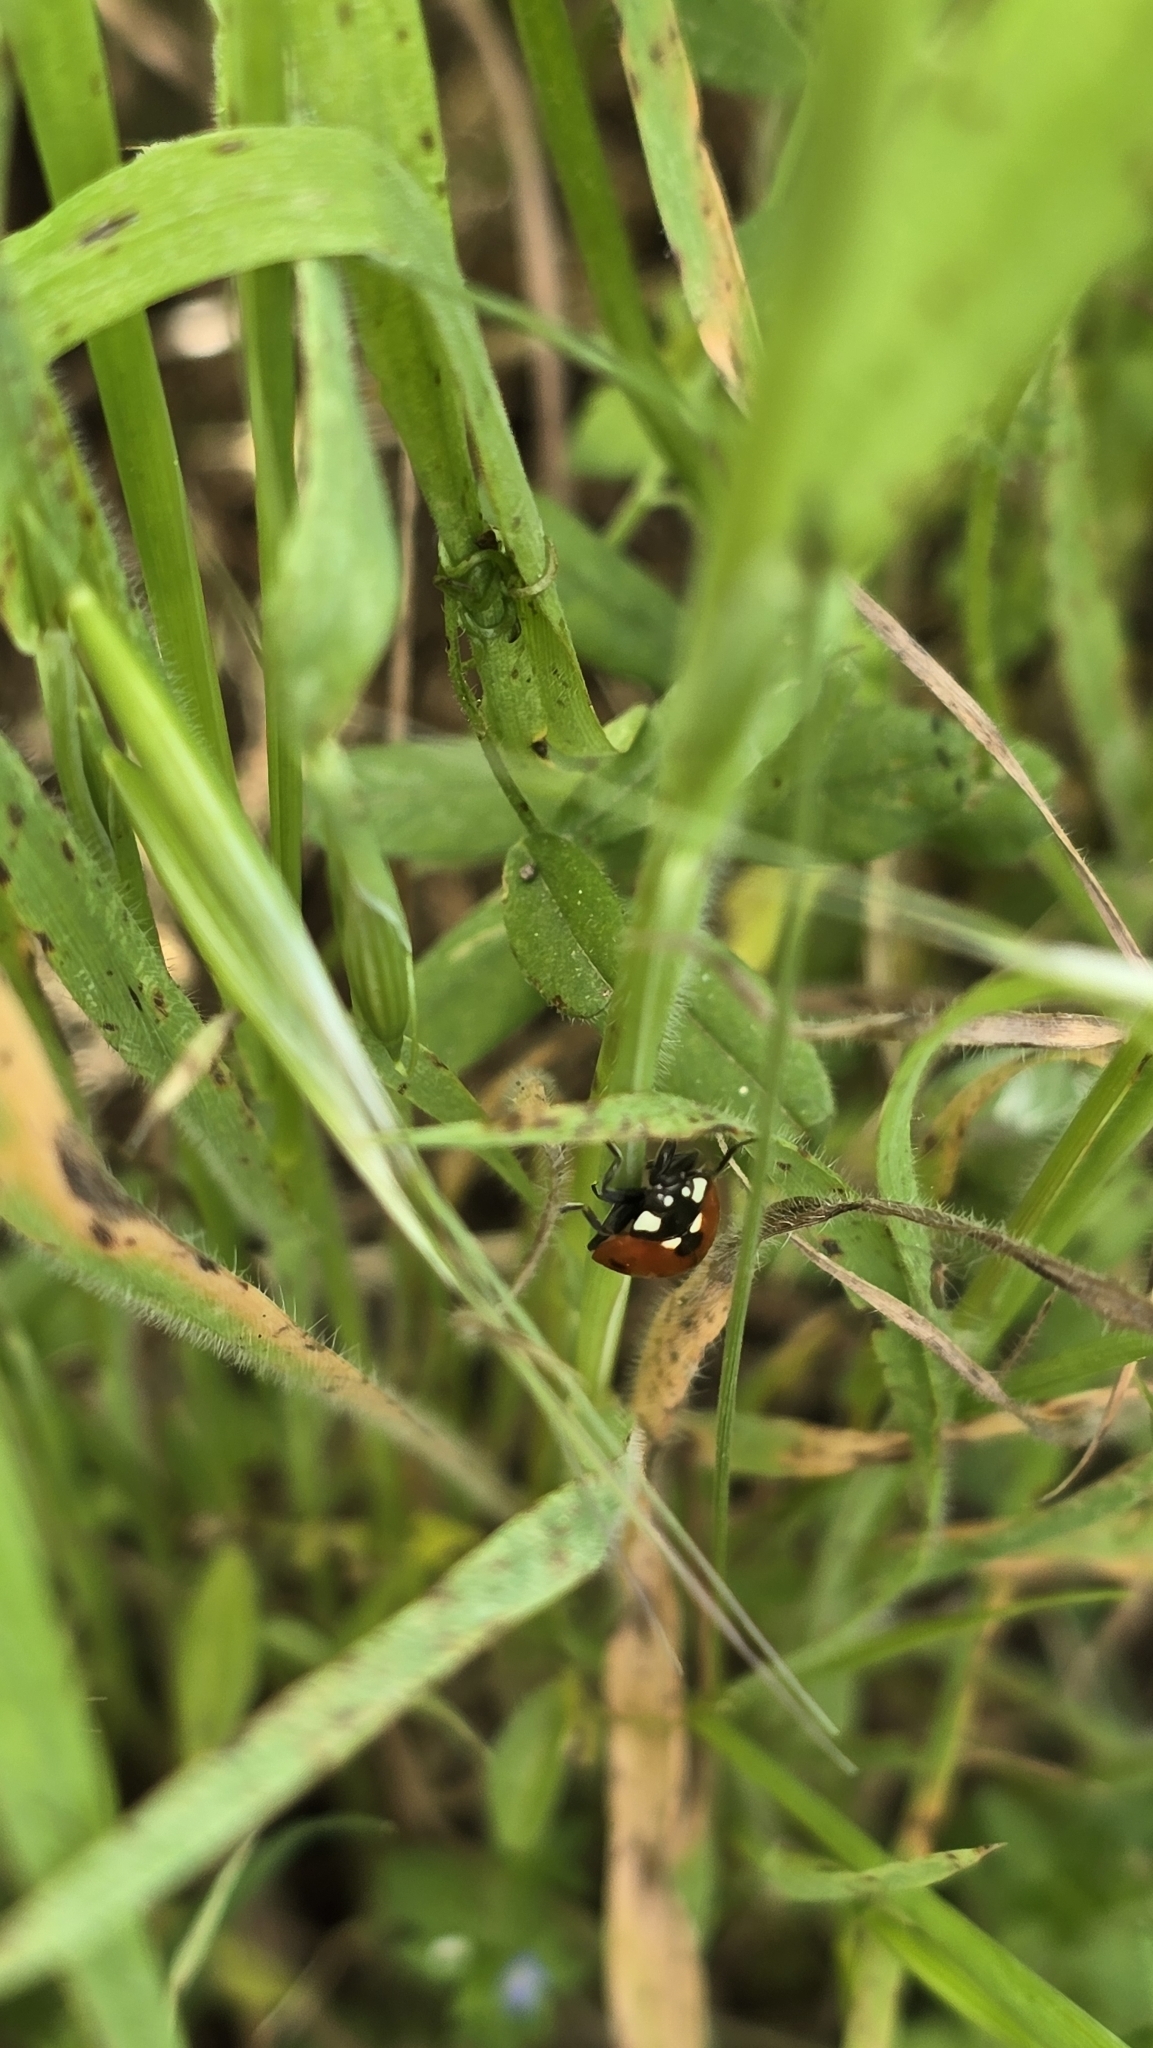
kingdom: Animalia
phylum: Arthropoda
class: Insecta
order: Coleoptera
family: Coccinellidae
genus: Coccinella
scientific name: Coccinella septempunctata
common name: Sevenspotted lady beetle
